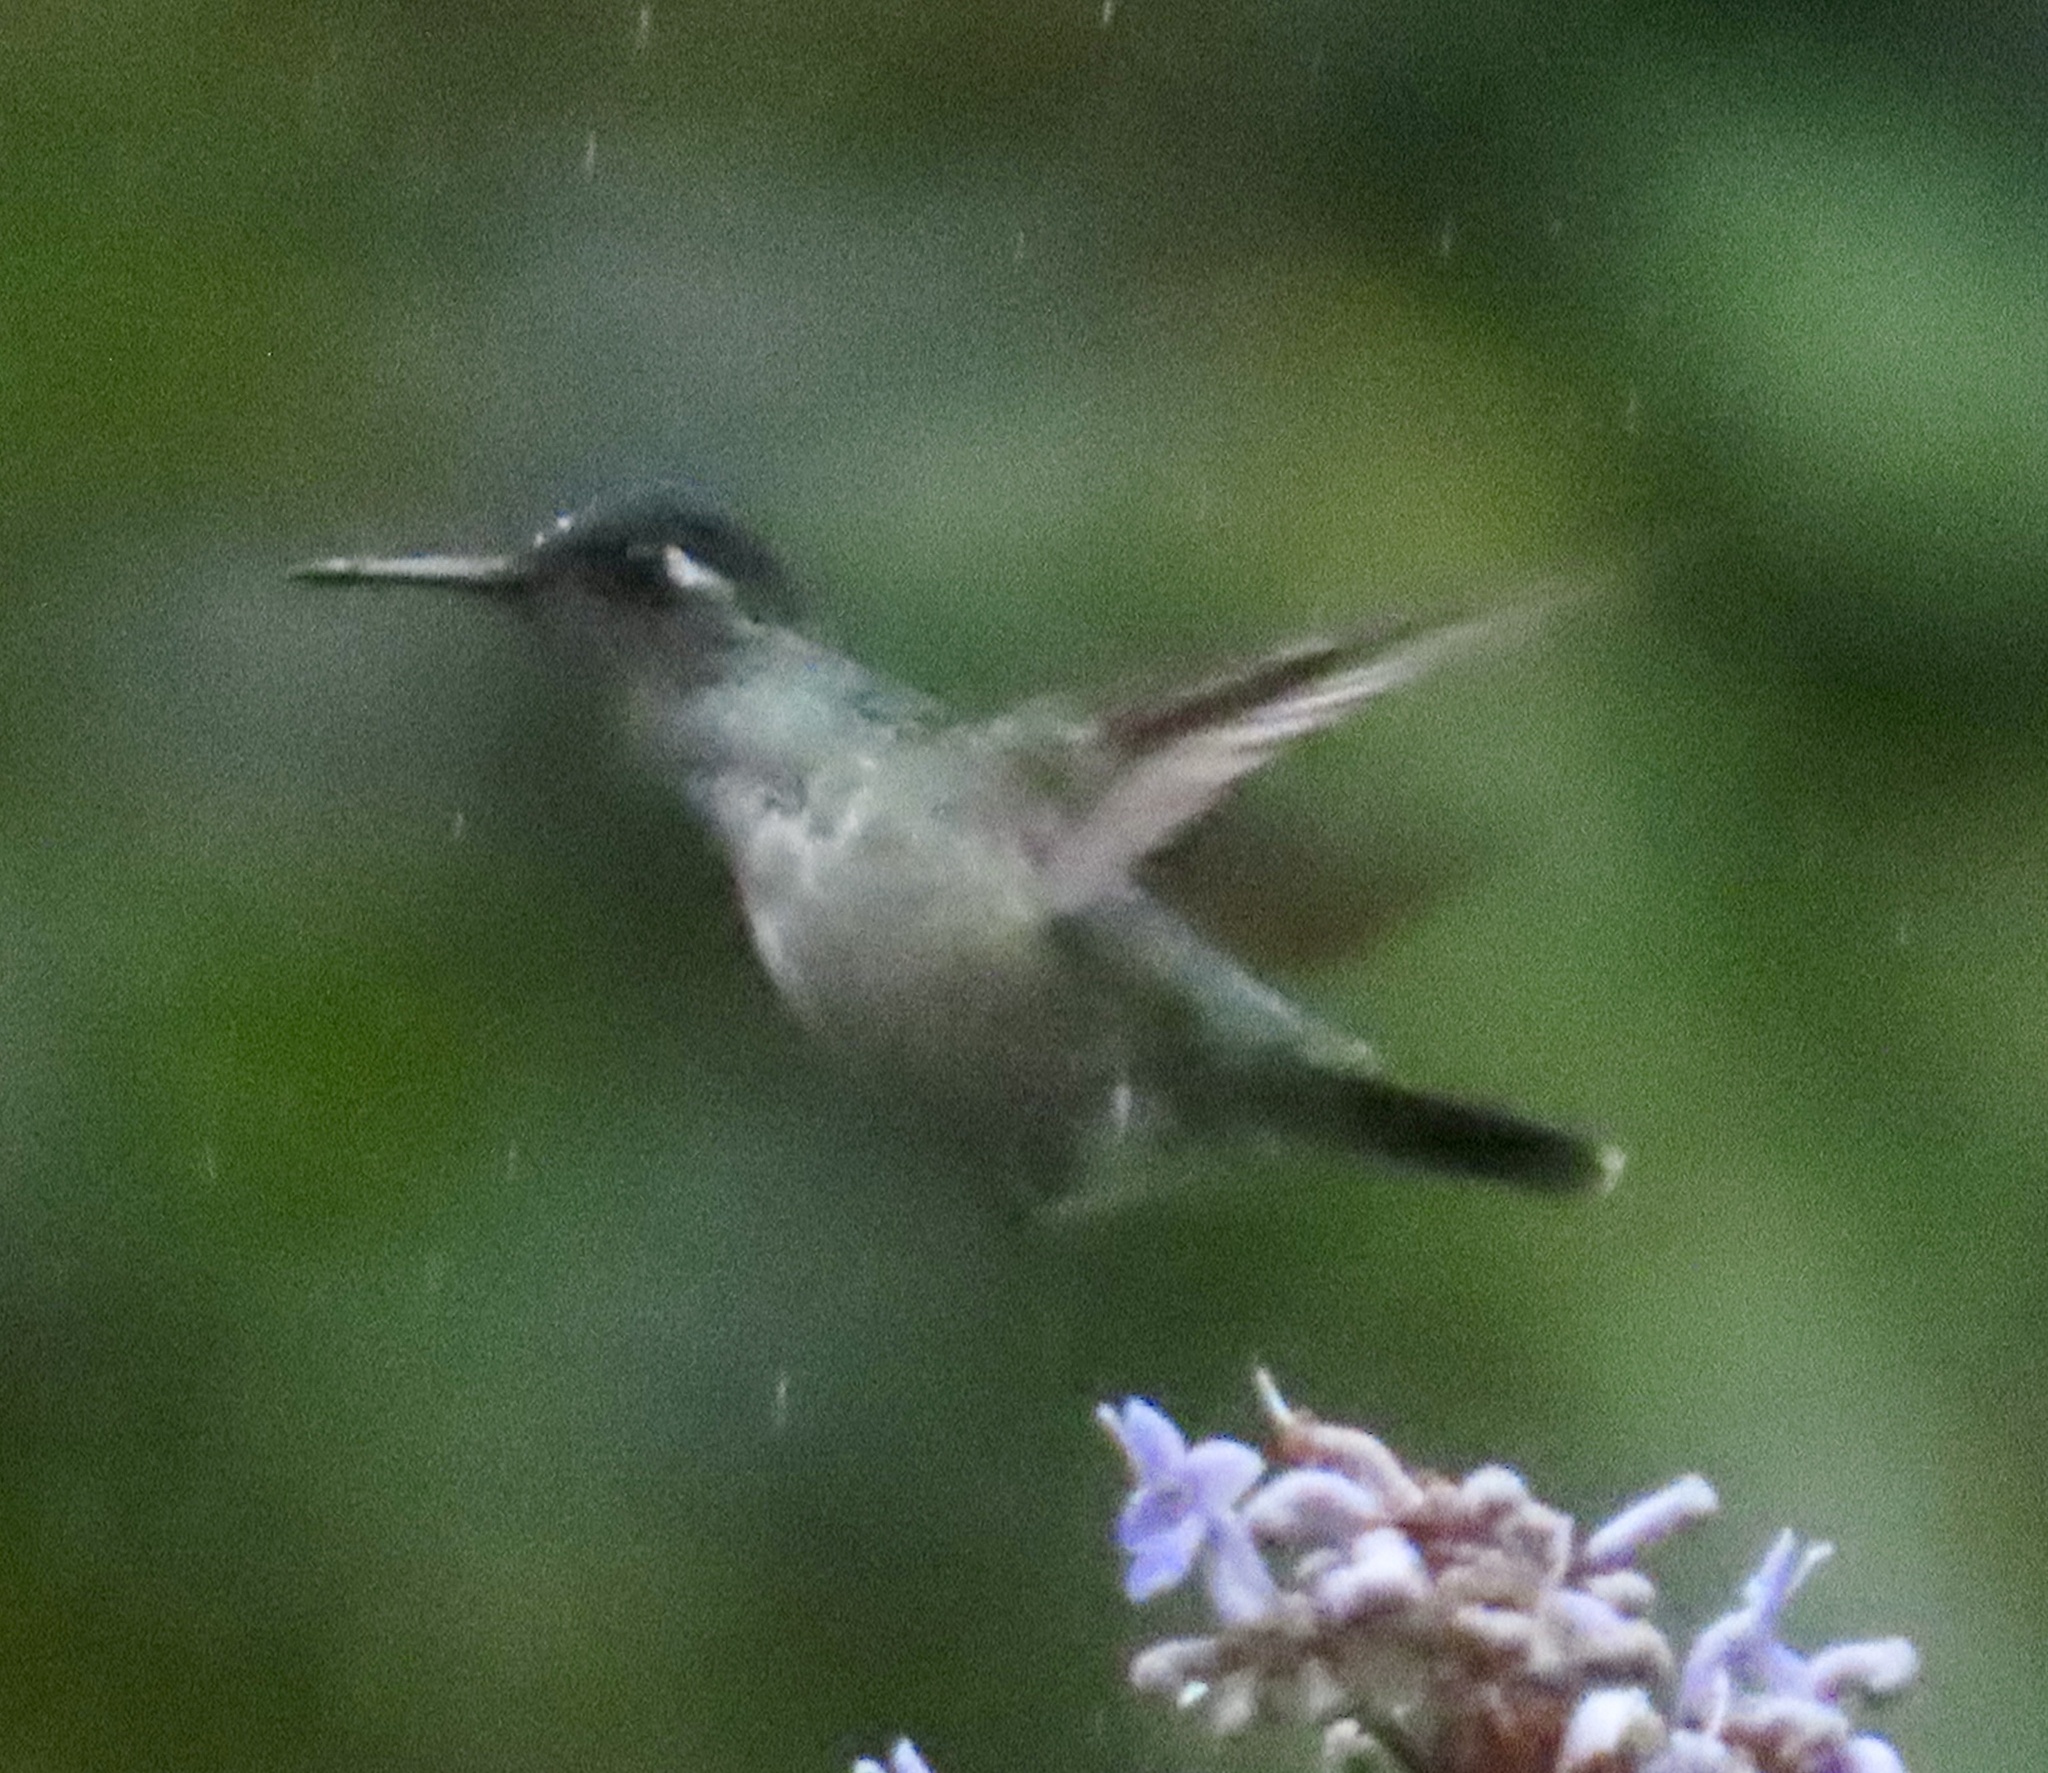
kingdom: Animalia
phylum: Chordata
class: Aves
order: Apodiformes
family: Trochilidae
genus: Klais
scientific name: Klais guimeti
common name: Violet-headed hummingbird
